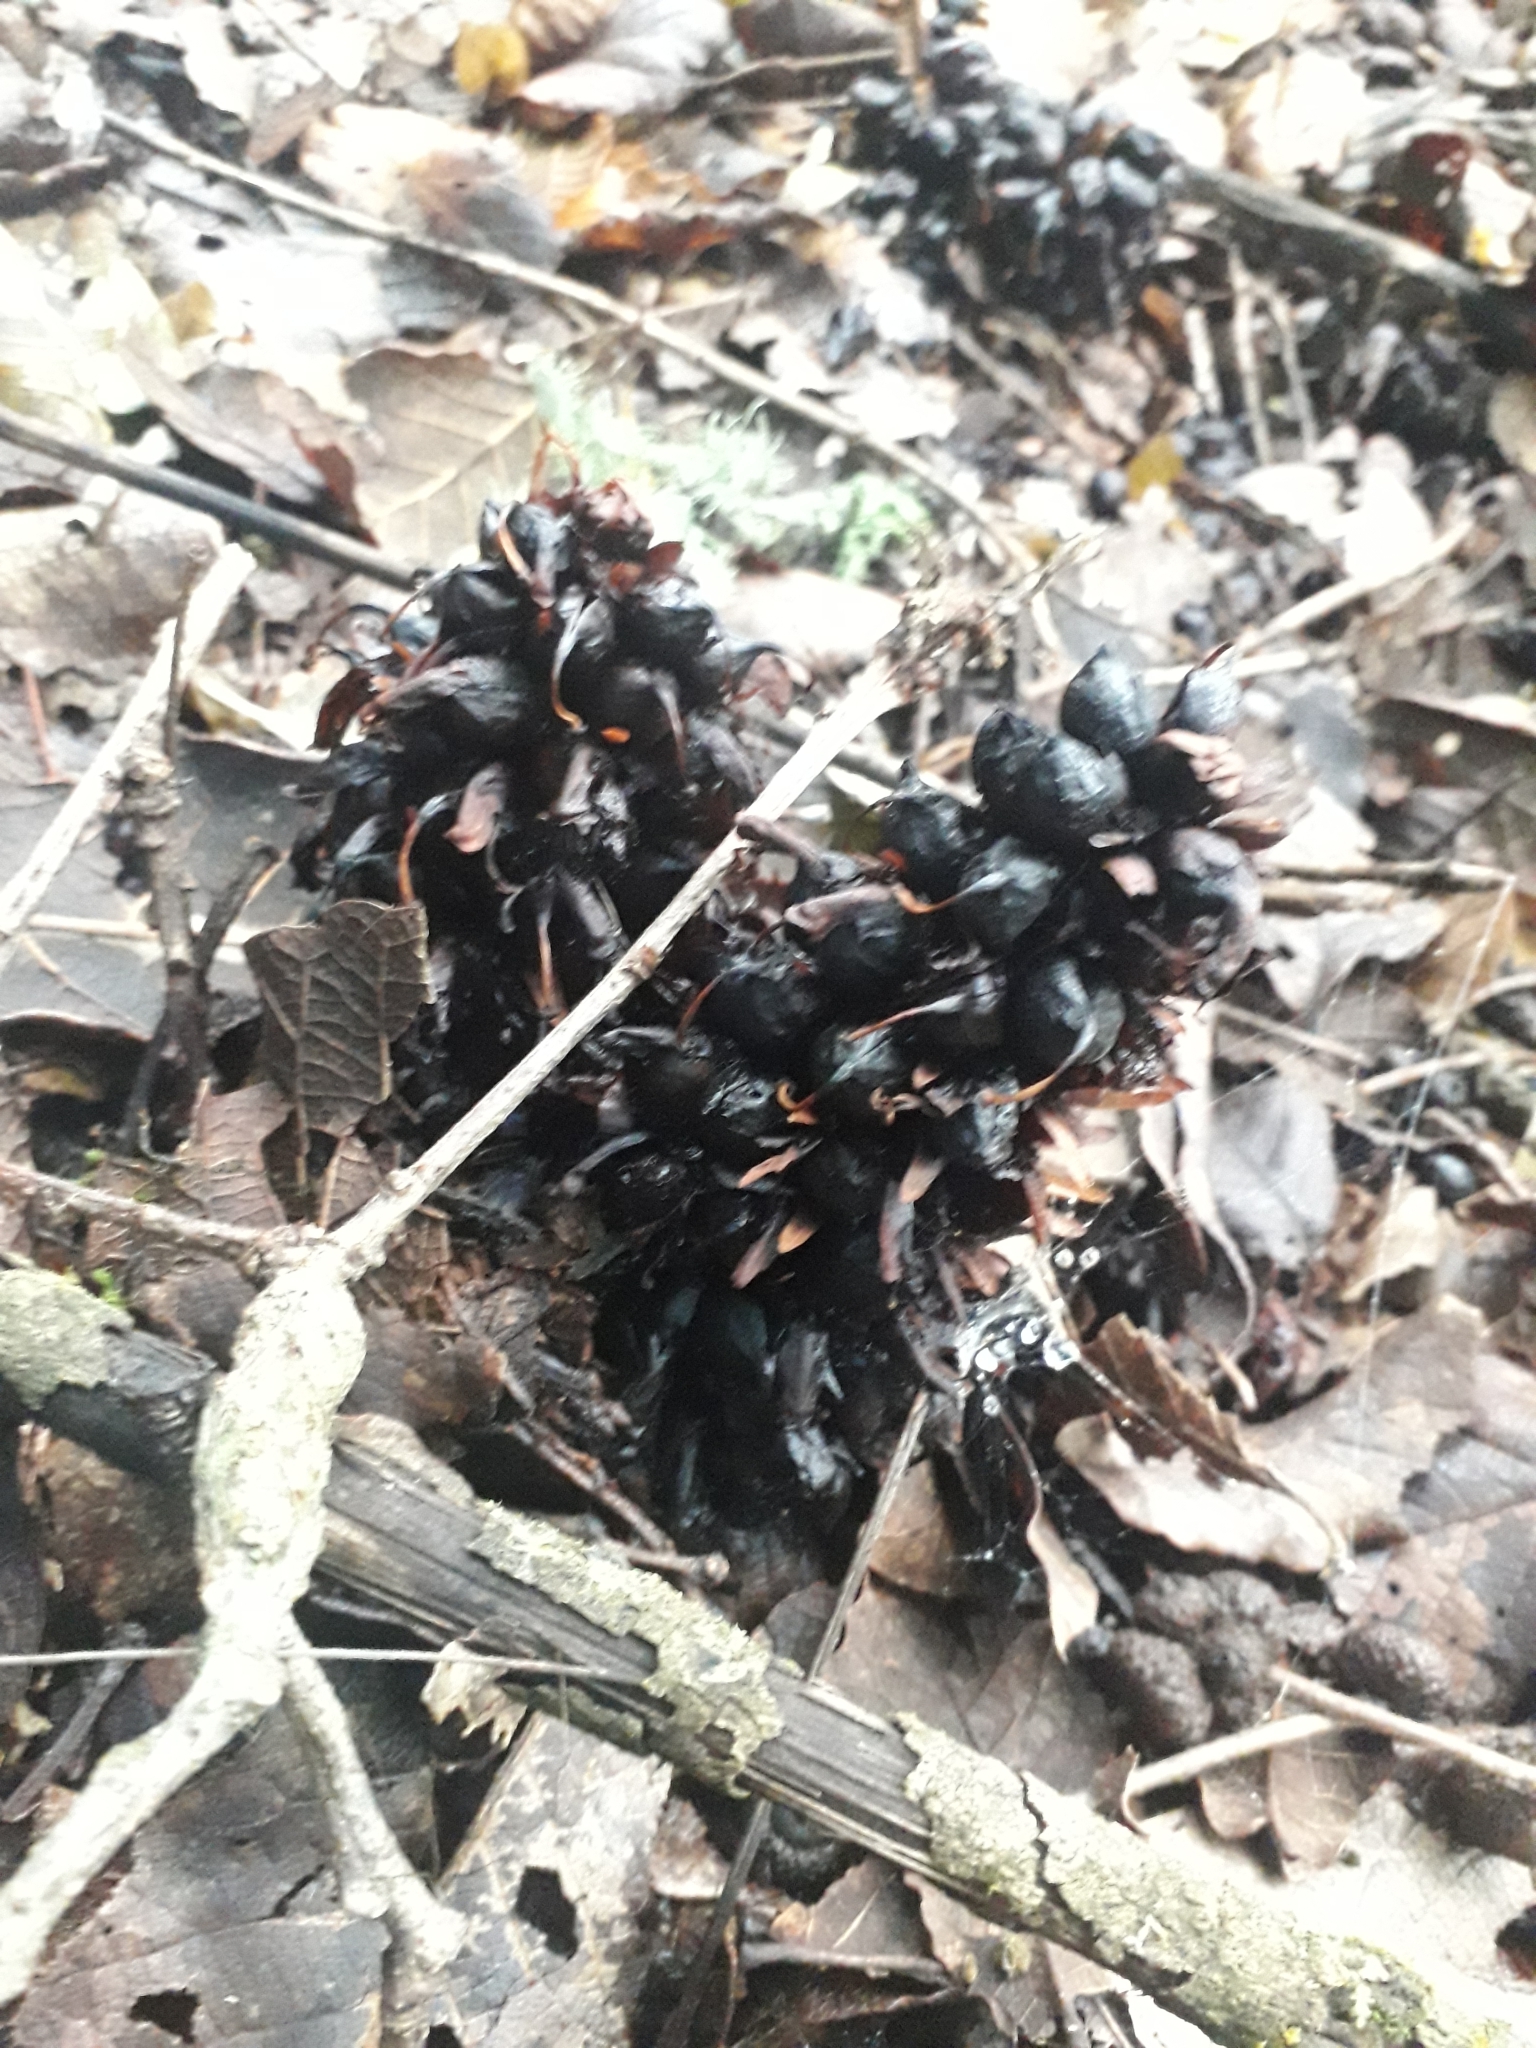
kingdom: Plantae
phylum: Tracheophyta
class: Magnoliopsida
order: Lamiales
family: Orobanchaceae
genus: Conopholis
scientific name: Conopholis alpina
